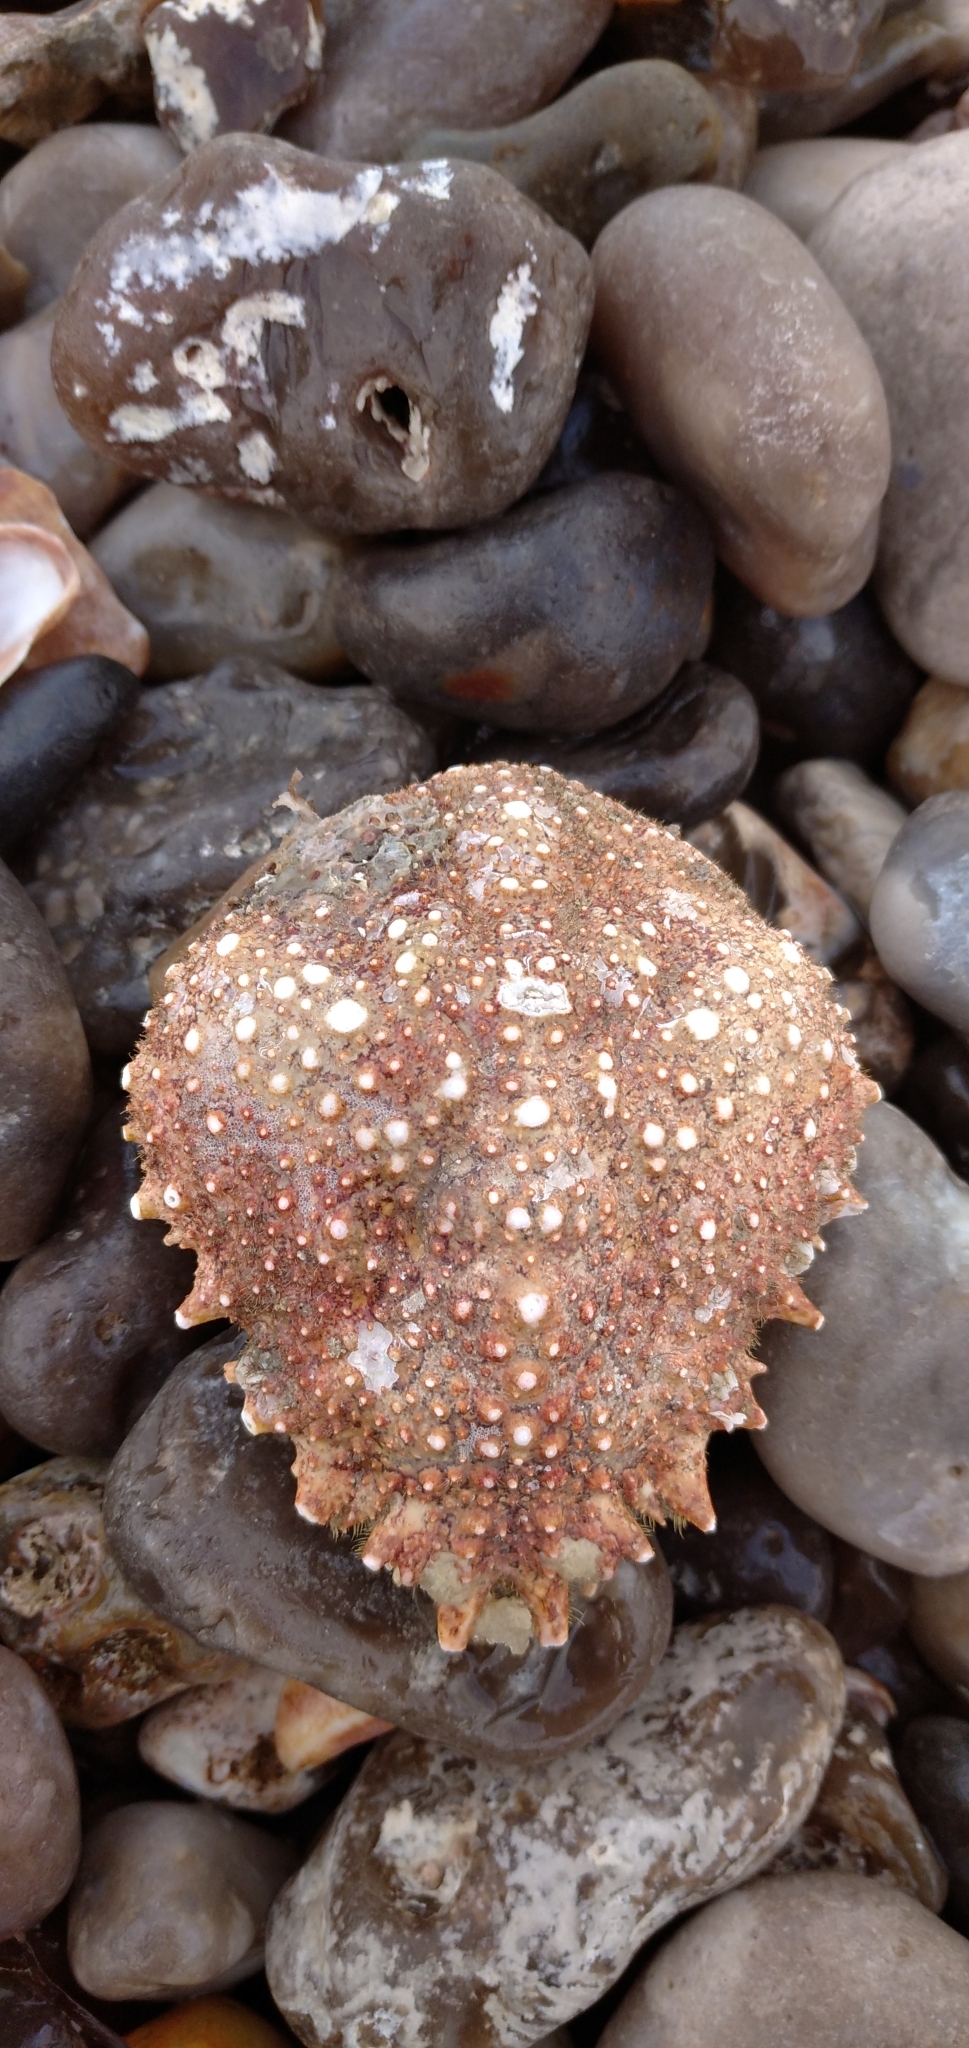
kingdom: Animalia
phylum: Arthropoda
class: Malacostraca
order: Decapoda
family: Majidae
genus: Maja
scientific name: Maja brachydactyla
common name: Common spider crab
